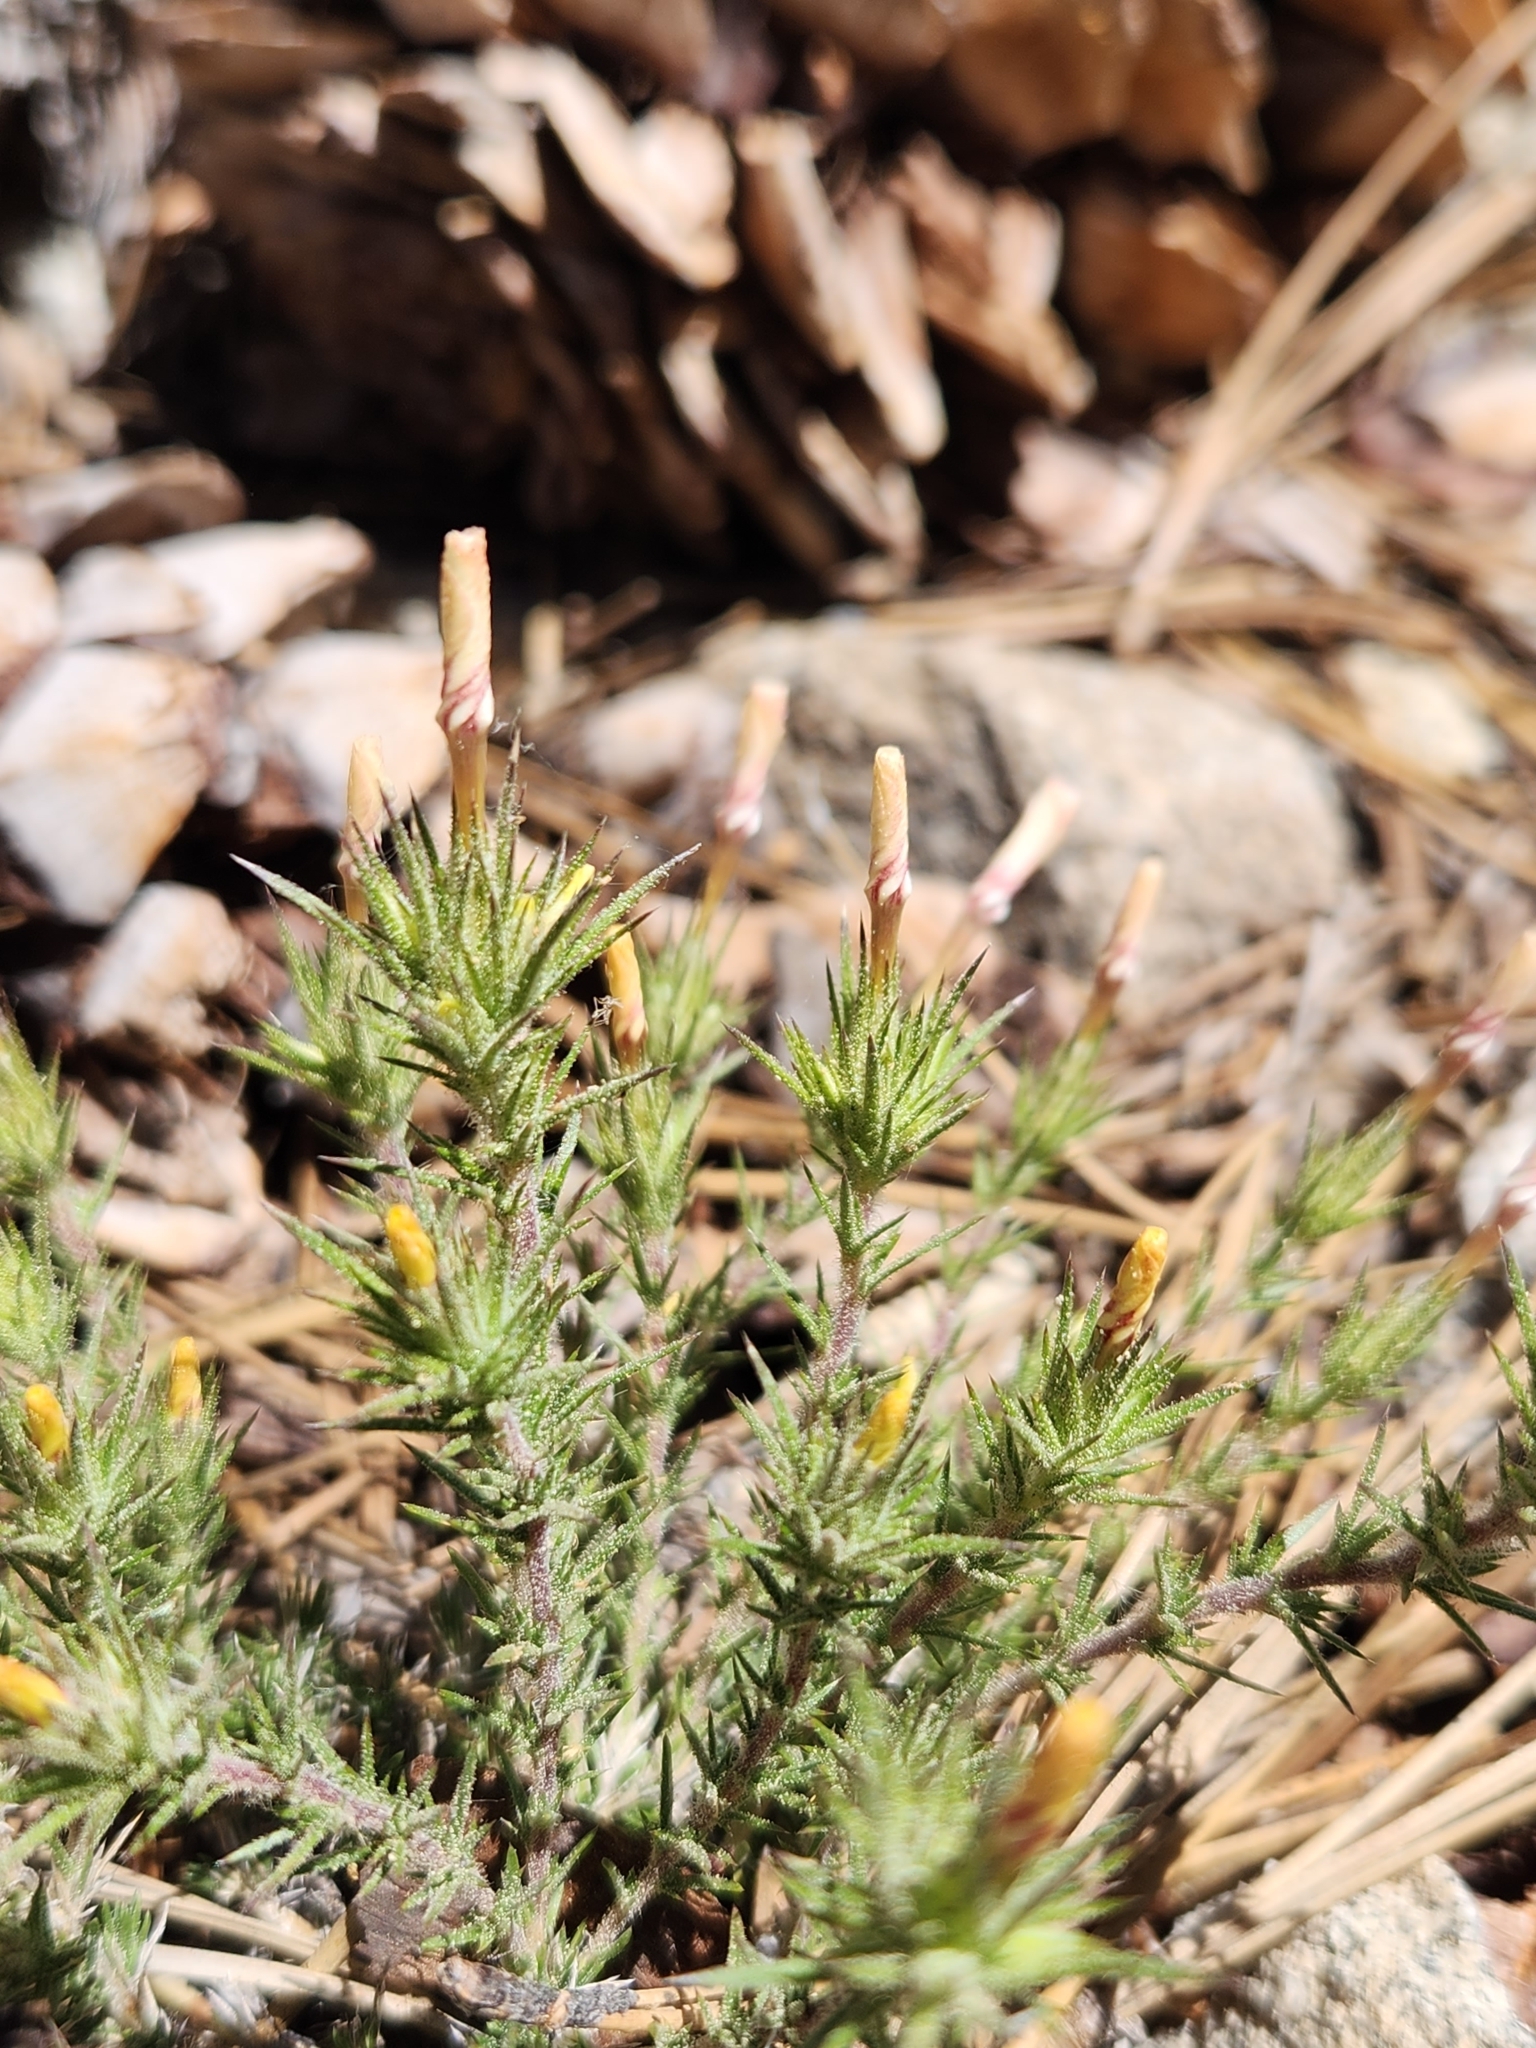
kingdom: Plantae
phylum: Tracheophyta
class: Magnoliopsida
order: Ericales
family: Polemoniaceae
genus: Linanthus
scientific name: Linanthus pungens
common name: Granite prickly phlox
